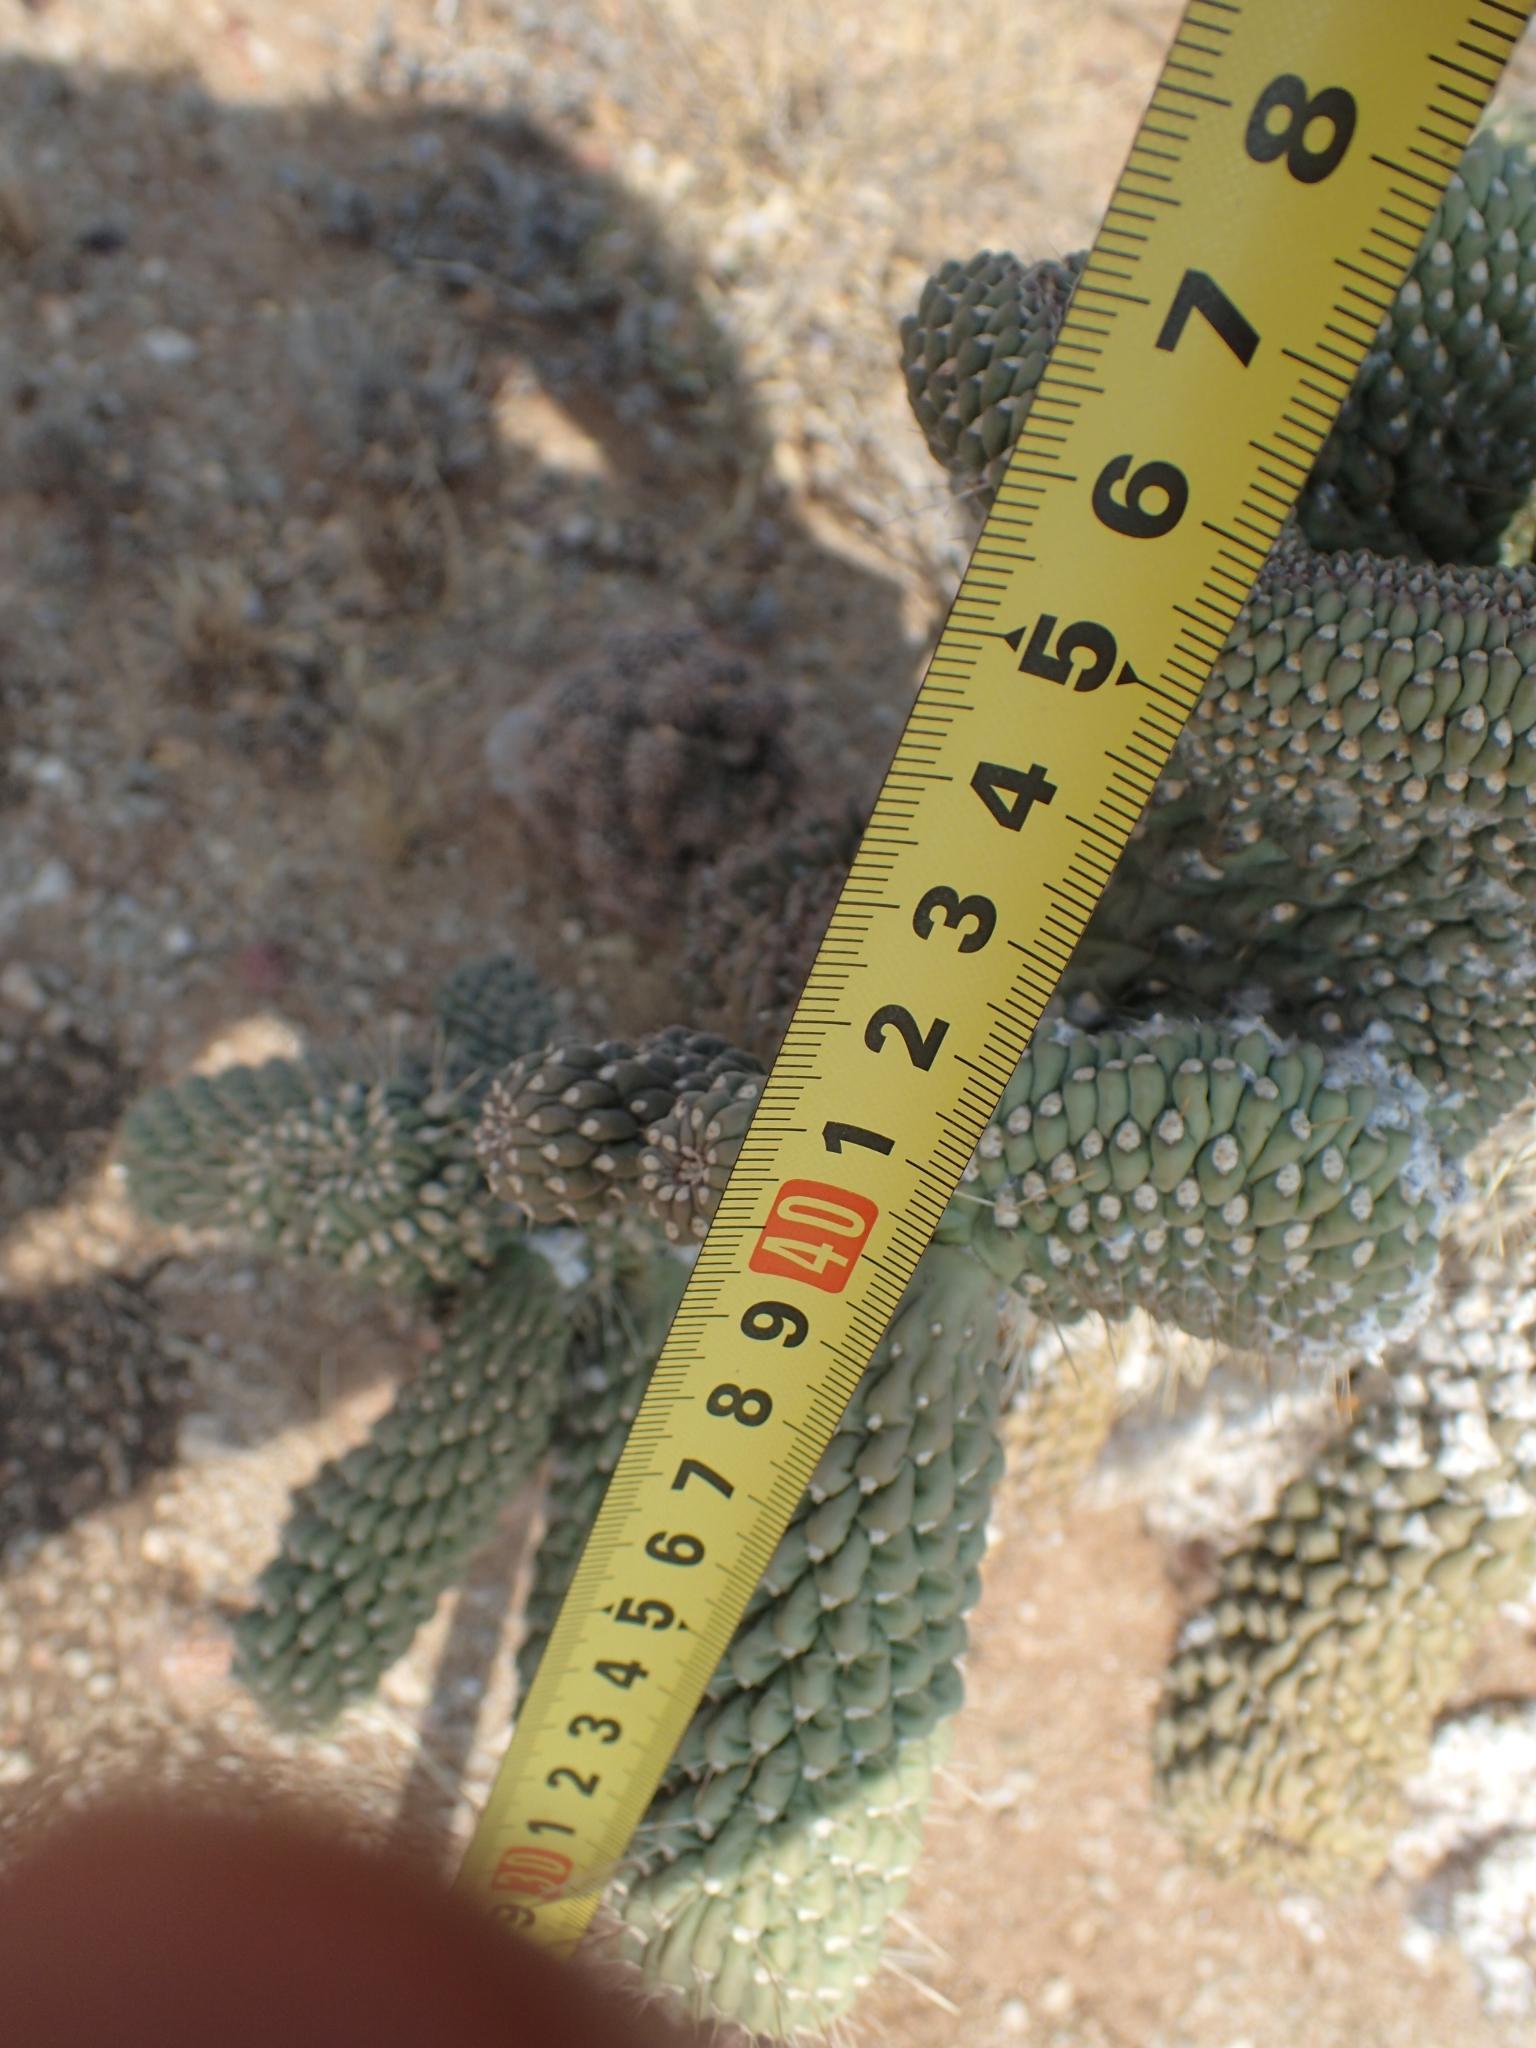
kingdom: Plantae
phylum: Tracheophyta
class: Magnoliopsida
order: Caryophyllales
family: Cactaceae
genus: Cylindropuntia
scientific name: Cylindropuntia fulgida
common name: Jumping cholla
